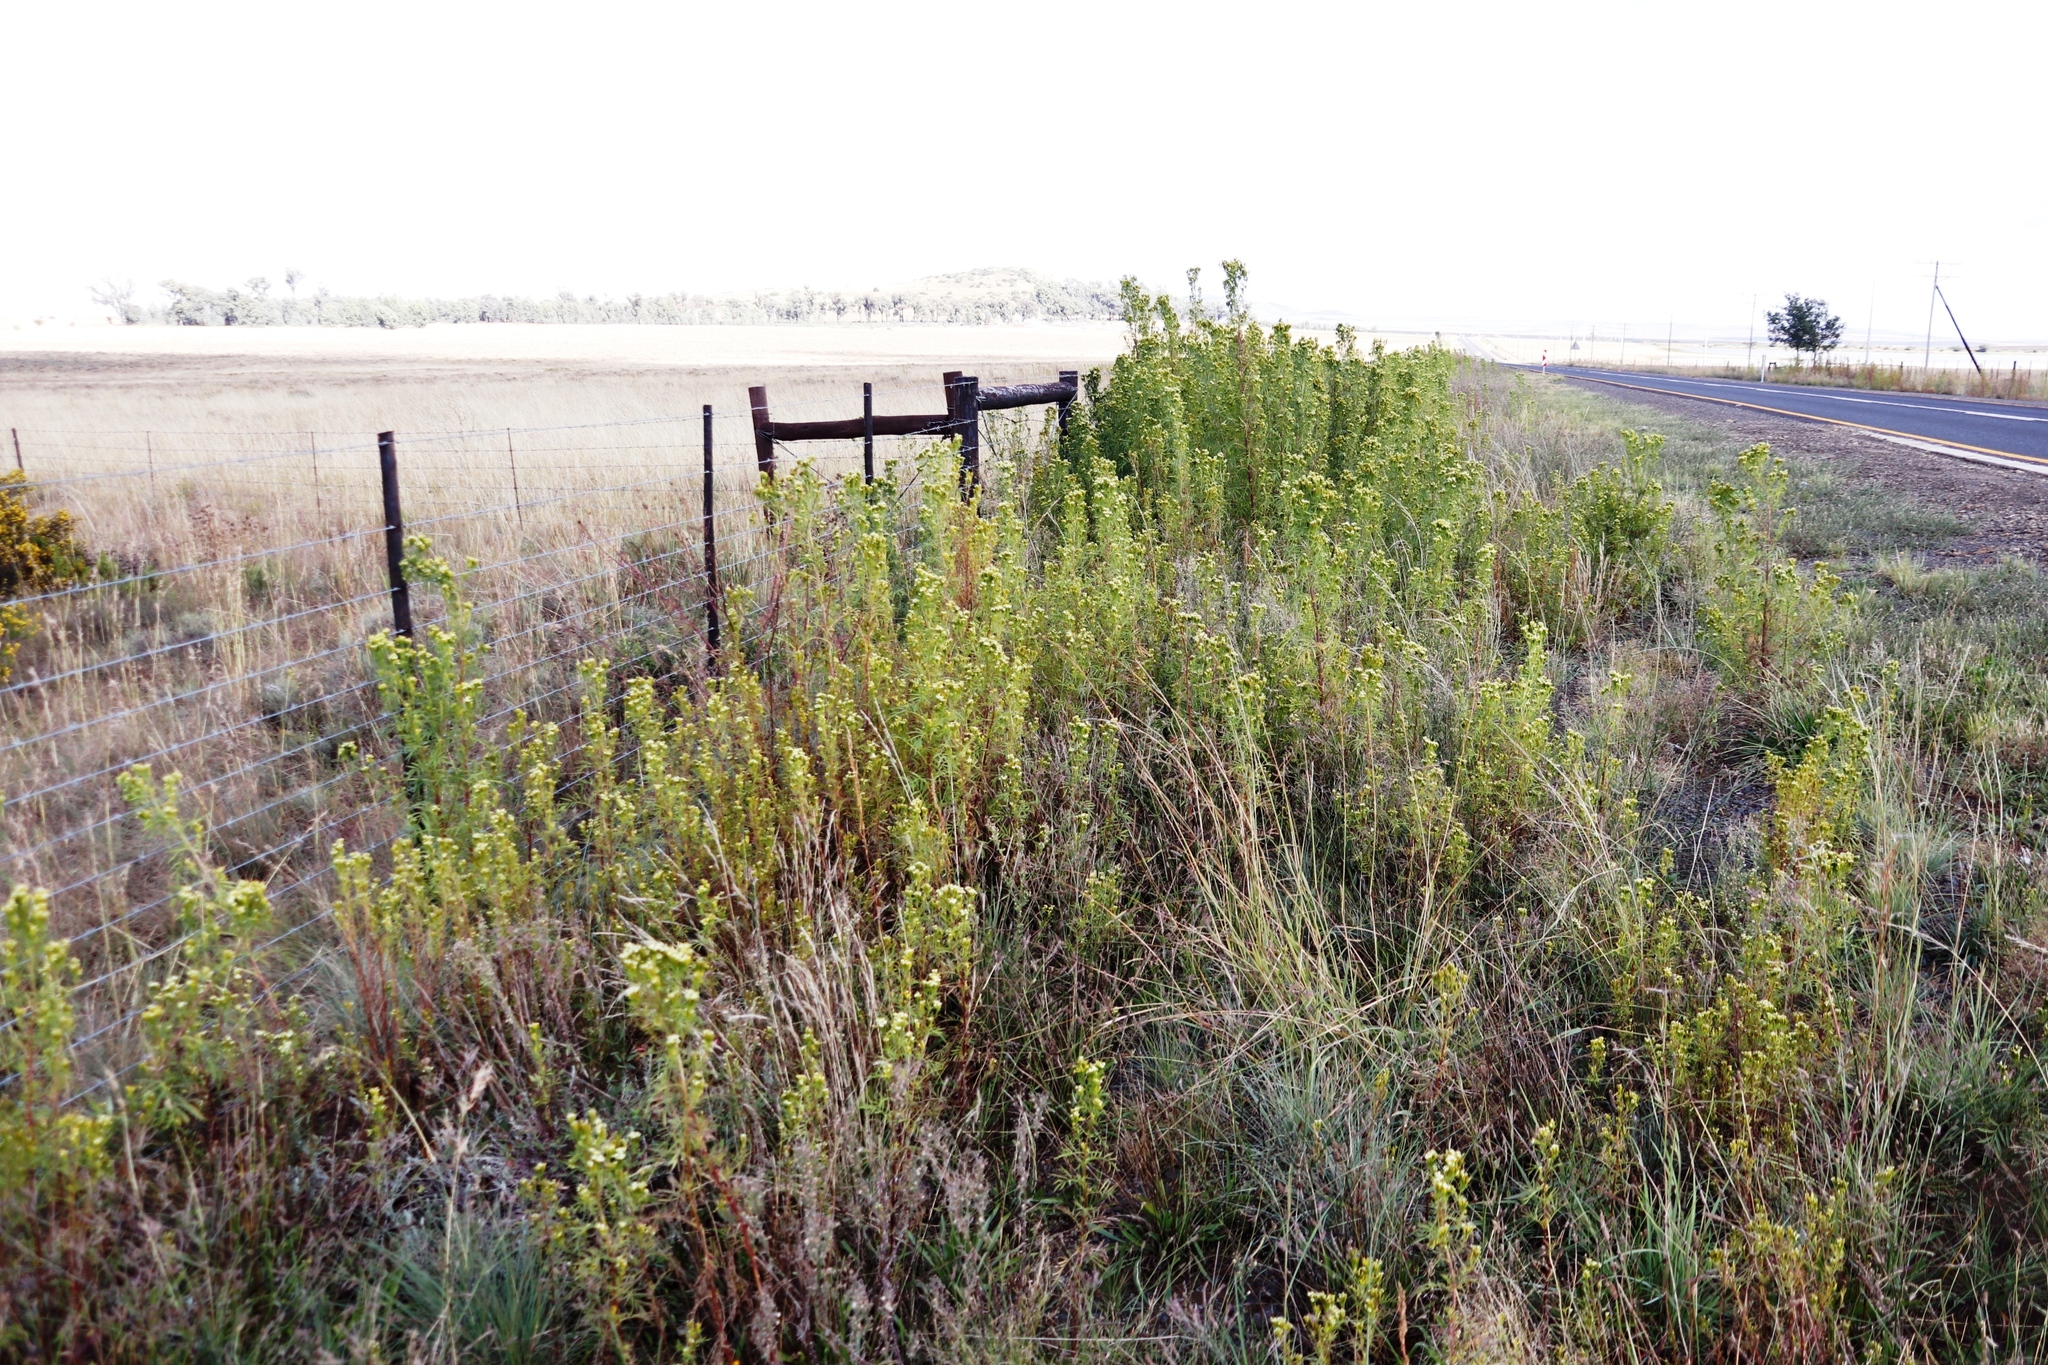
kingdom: Plantae
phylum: Tracheophyta
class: Magnoliopsida
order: Asterales
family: Asteraceae
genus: Tagetes
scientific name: Tagetes minuta
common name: Muster john henry
